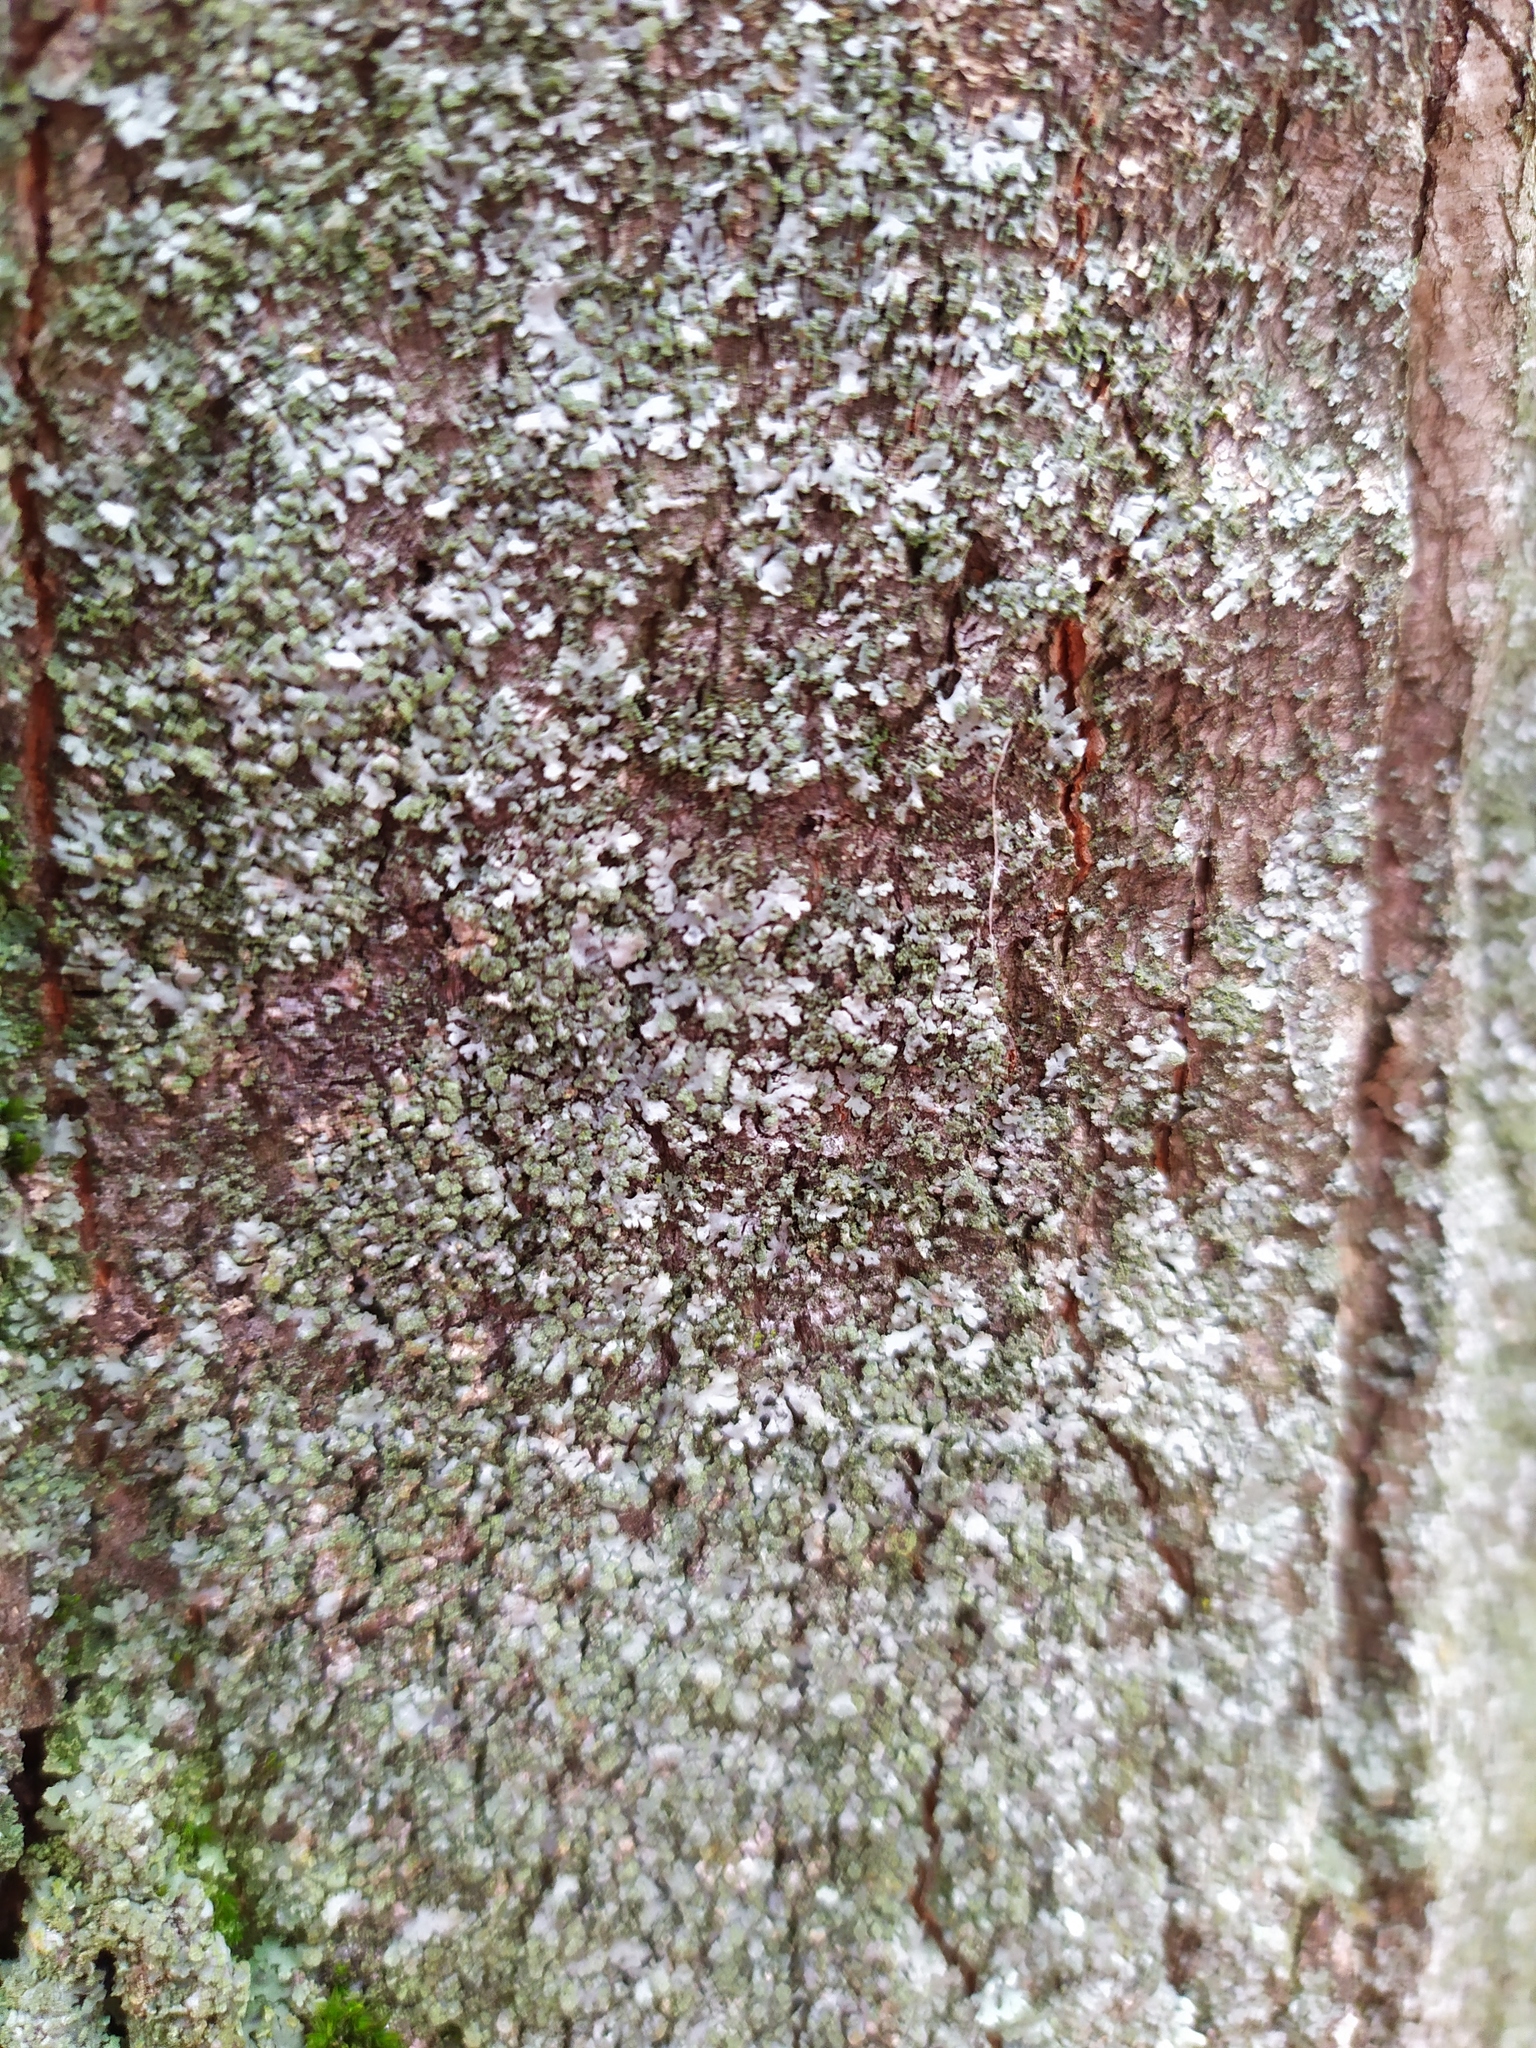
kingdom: Fungi
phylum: Ascomycota
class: Lecanoromycetes
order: Caliciales
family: Physciaceae
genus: Phaeophyscia
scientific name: Phaeophyscia orbicularis
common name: Mealy shadow lichen
